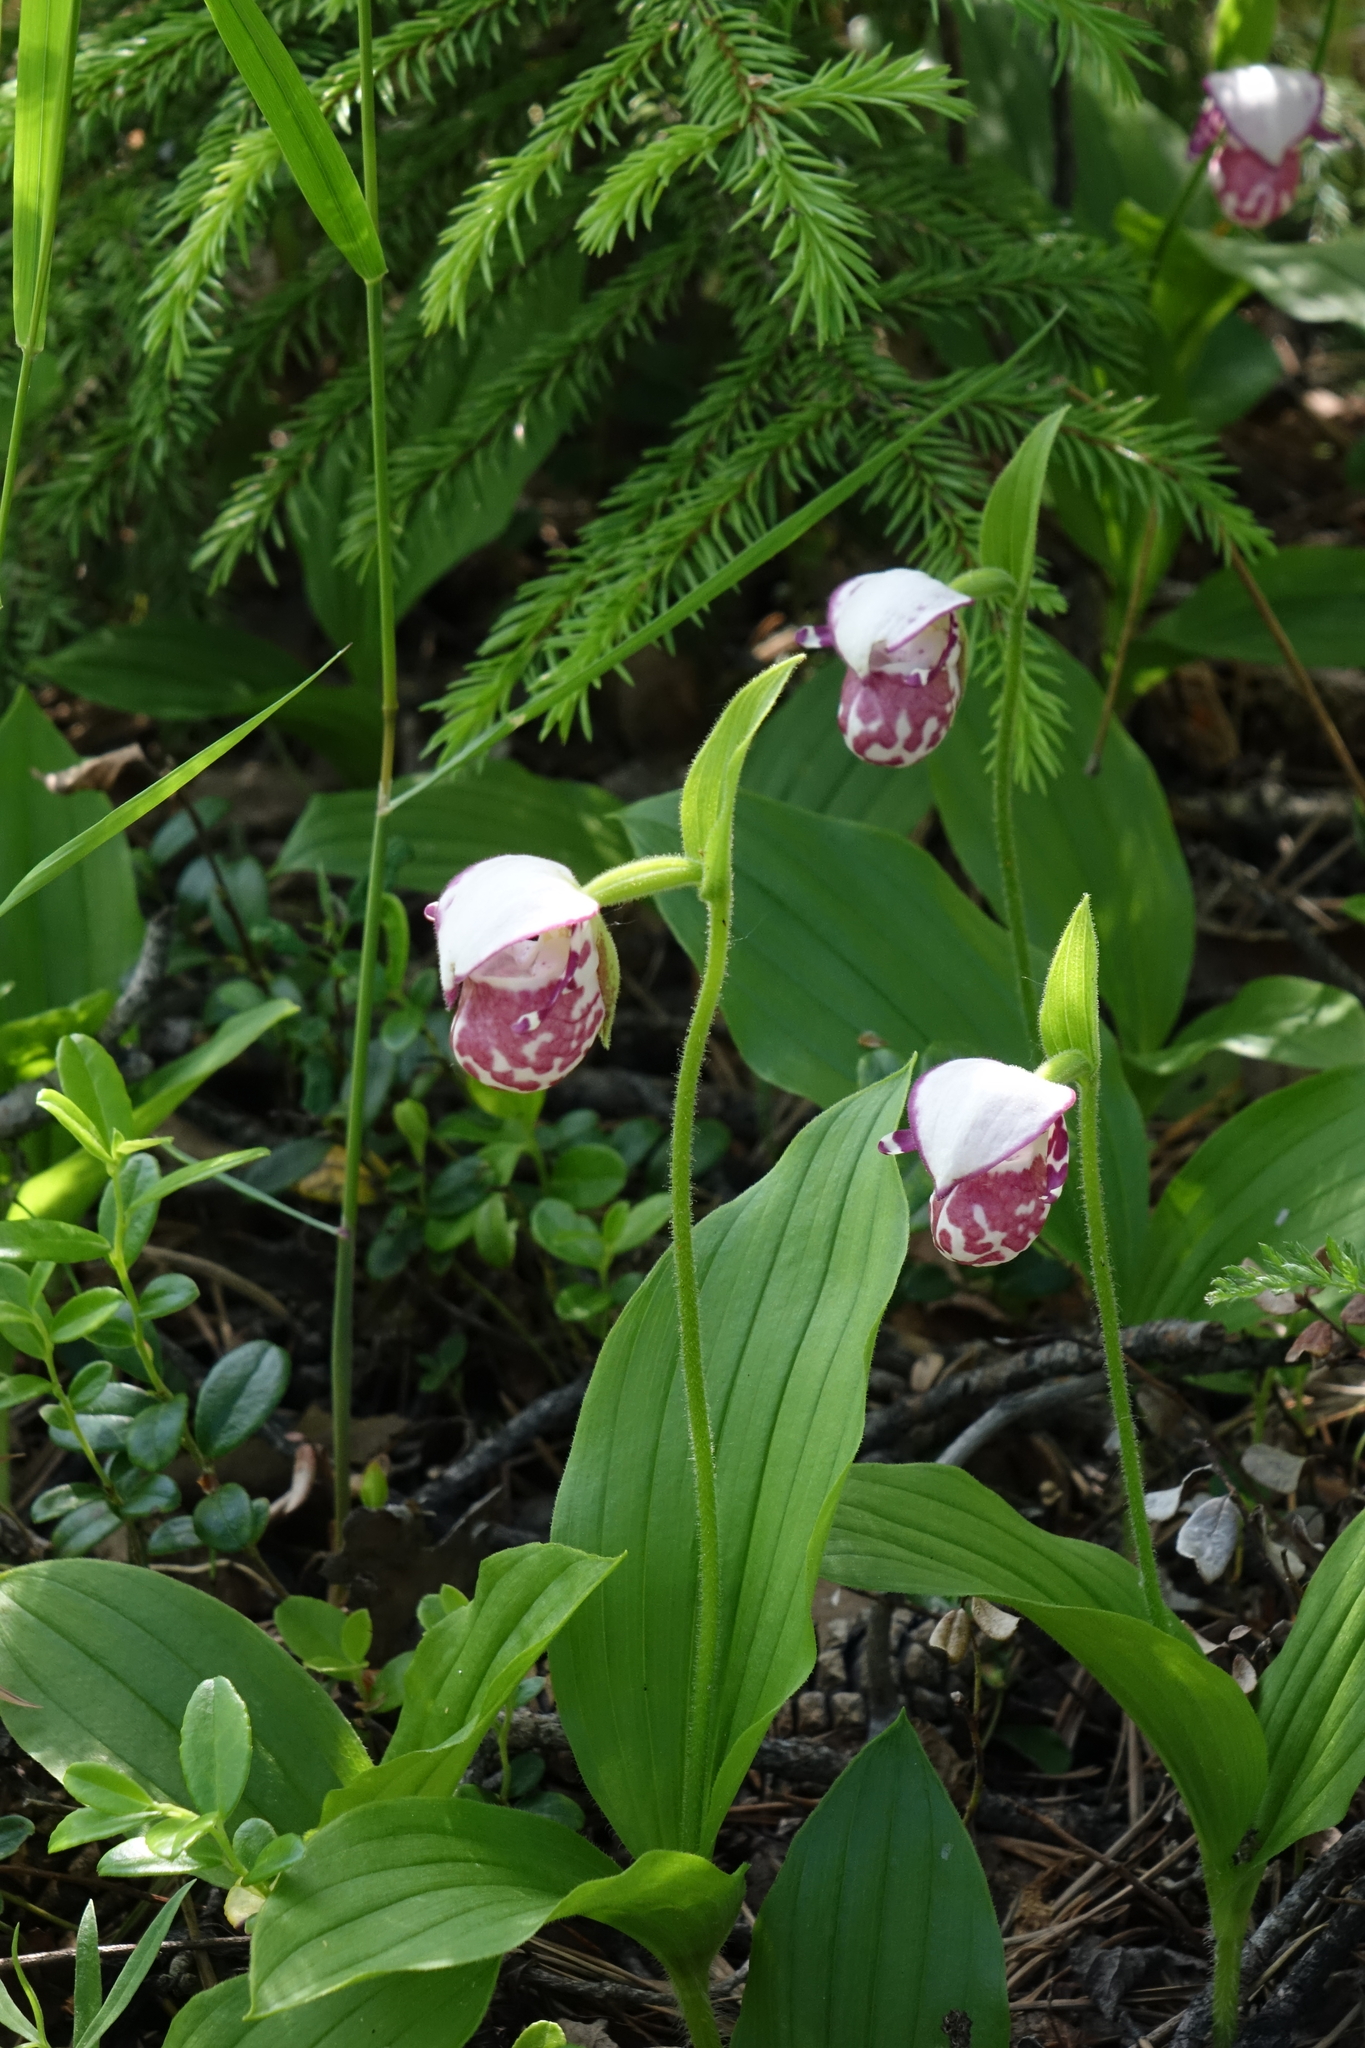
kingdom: Plantae
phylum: Tracheophyta
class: Liliopsida
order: Asparagales
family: Orchidaceae
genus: Cypripedium
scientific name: Cypripedium guttatum
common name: Pink lady slipper
